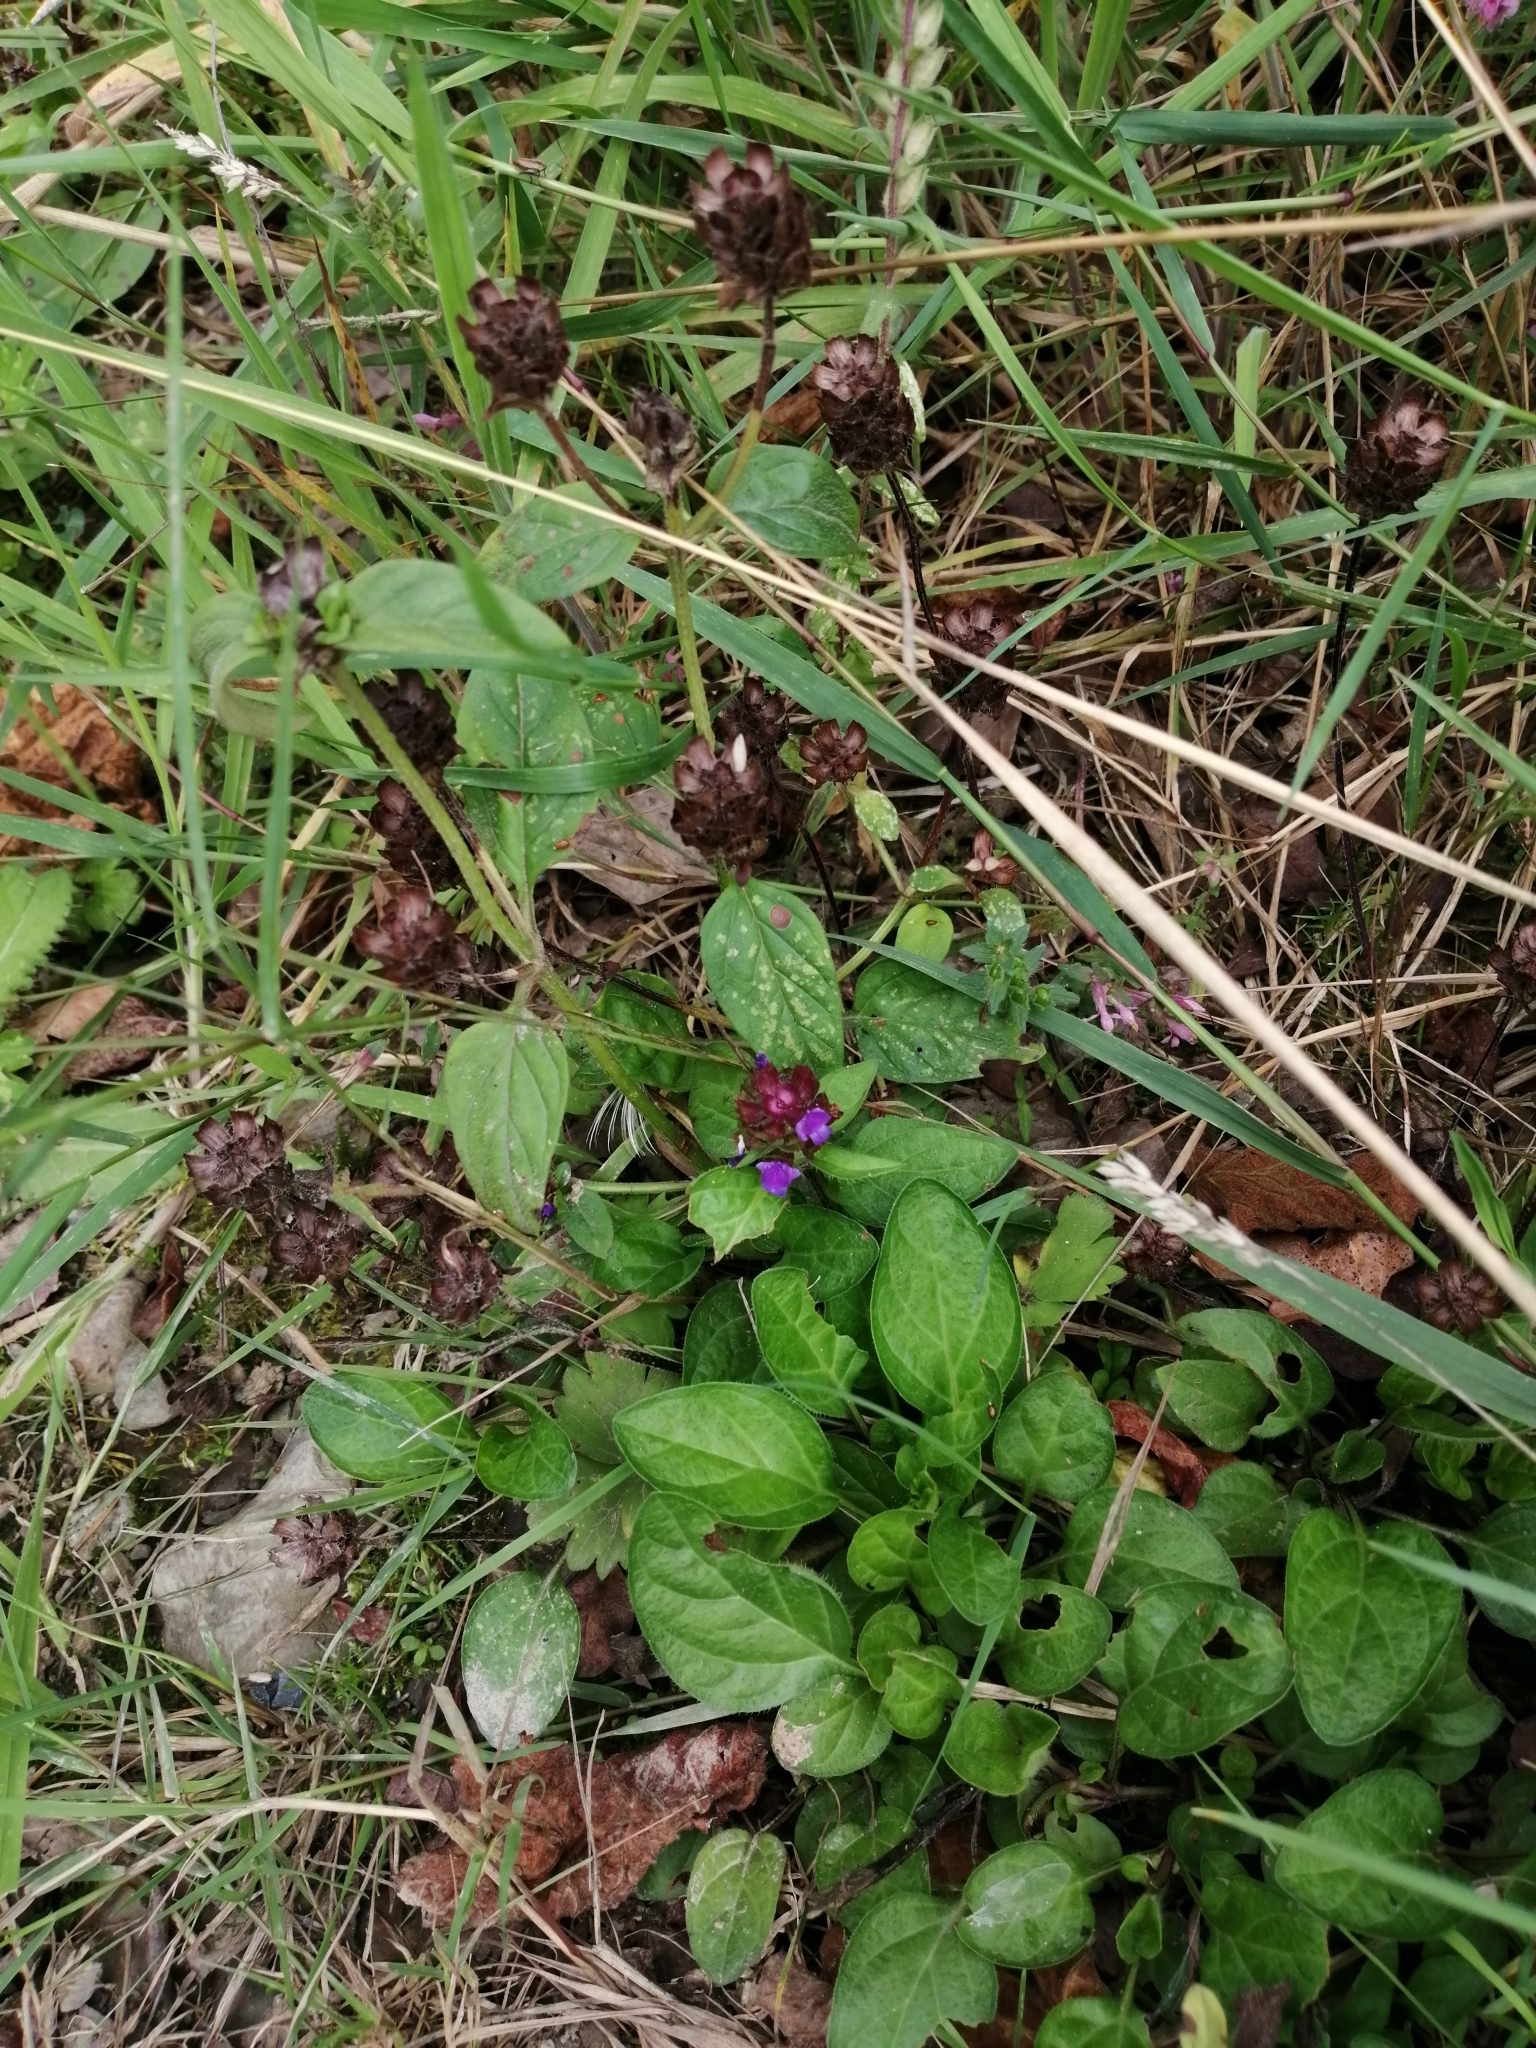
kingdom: Plantae
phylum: Tracheophyta
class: Magnoliopsida
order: Lamiales
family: Lamiaceae
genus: Prunella
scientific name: Prunella vulgaris
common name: Heal-all
